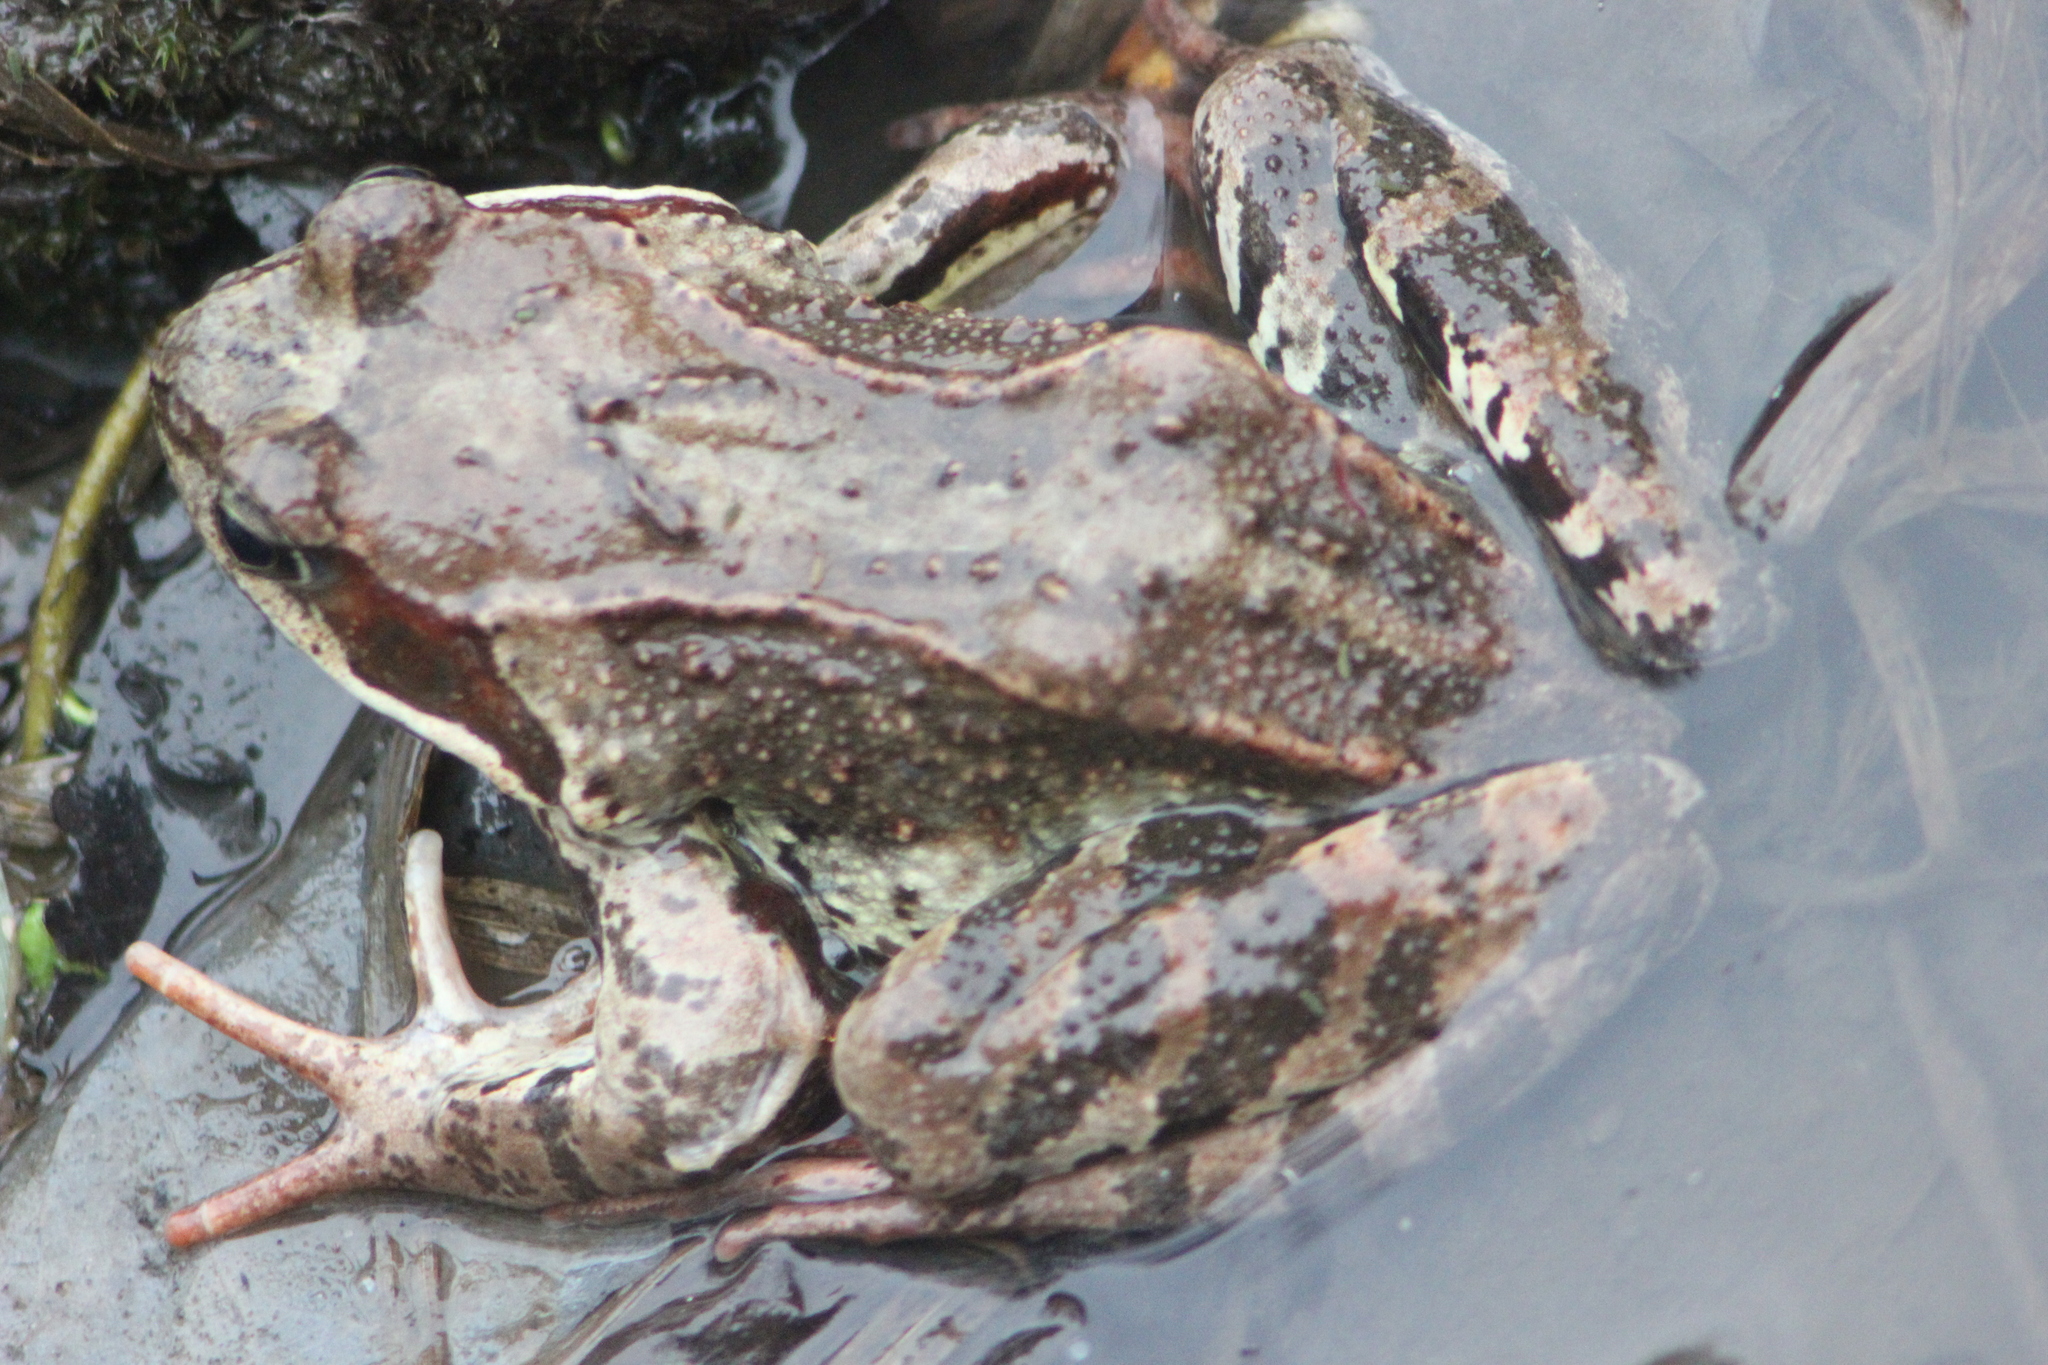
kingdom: Animalia
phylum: Chordata
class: Amphibia
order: Anura
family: Ranidae
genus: Rana
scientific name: Rana temporaria
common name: Common frog
